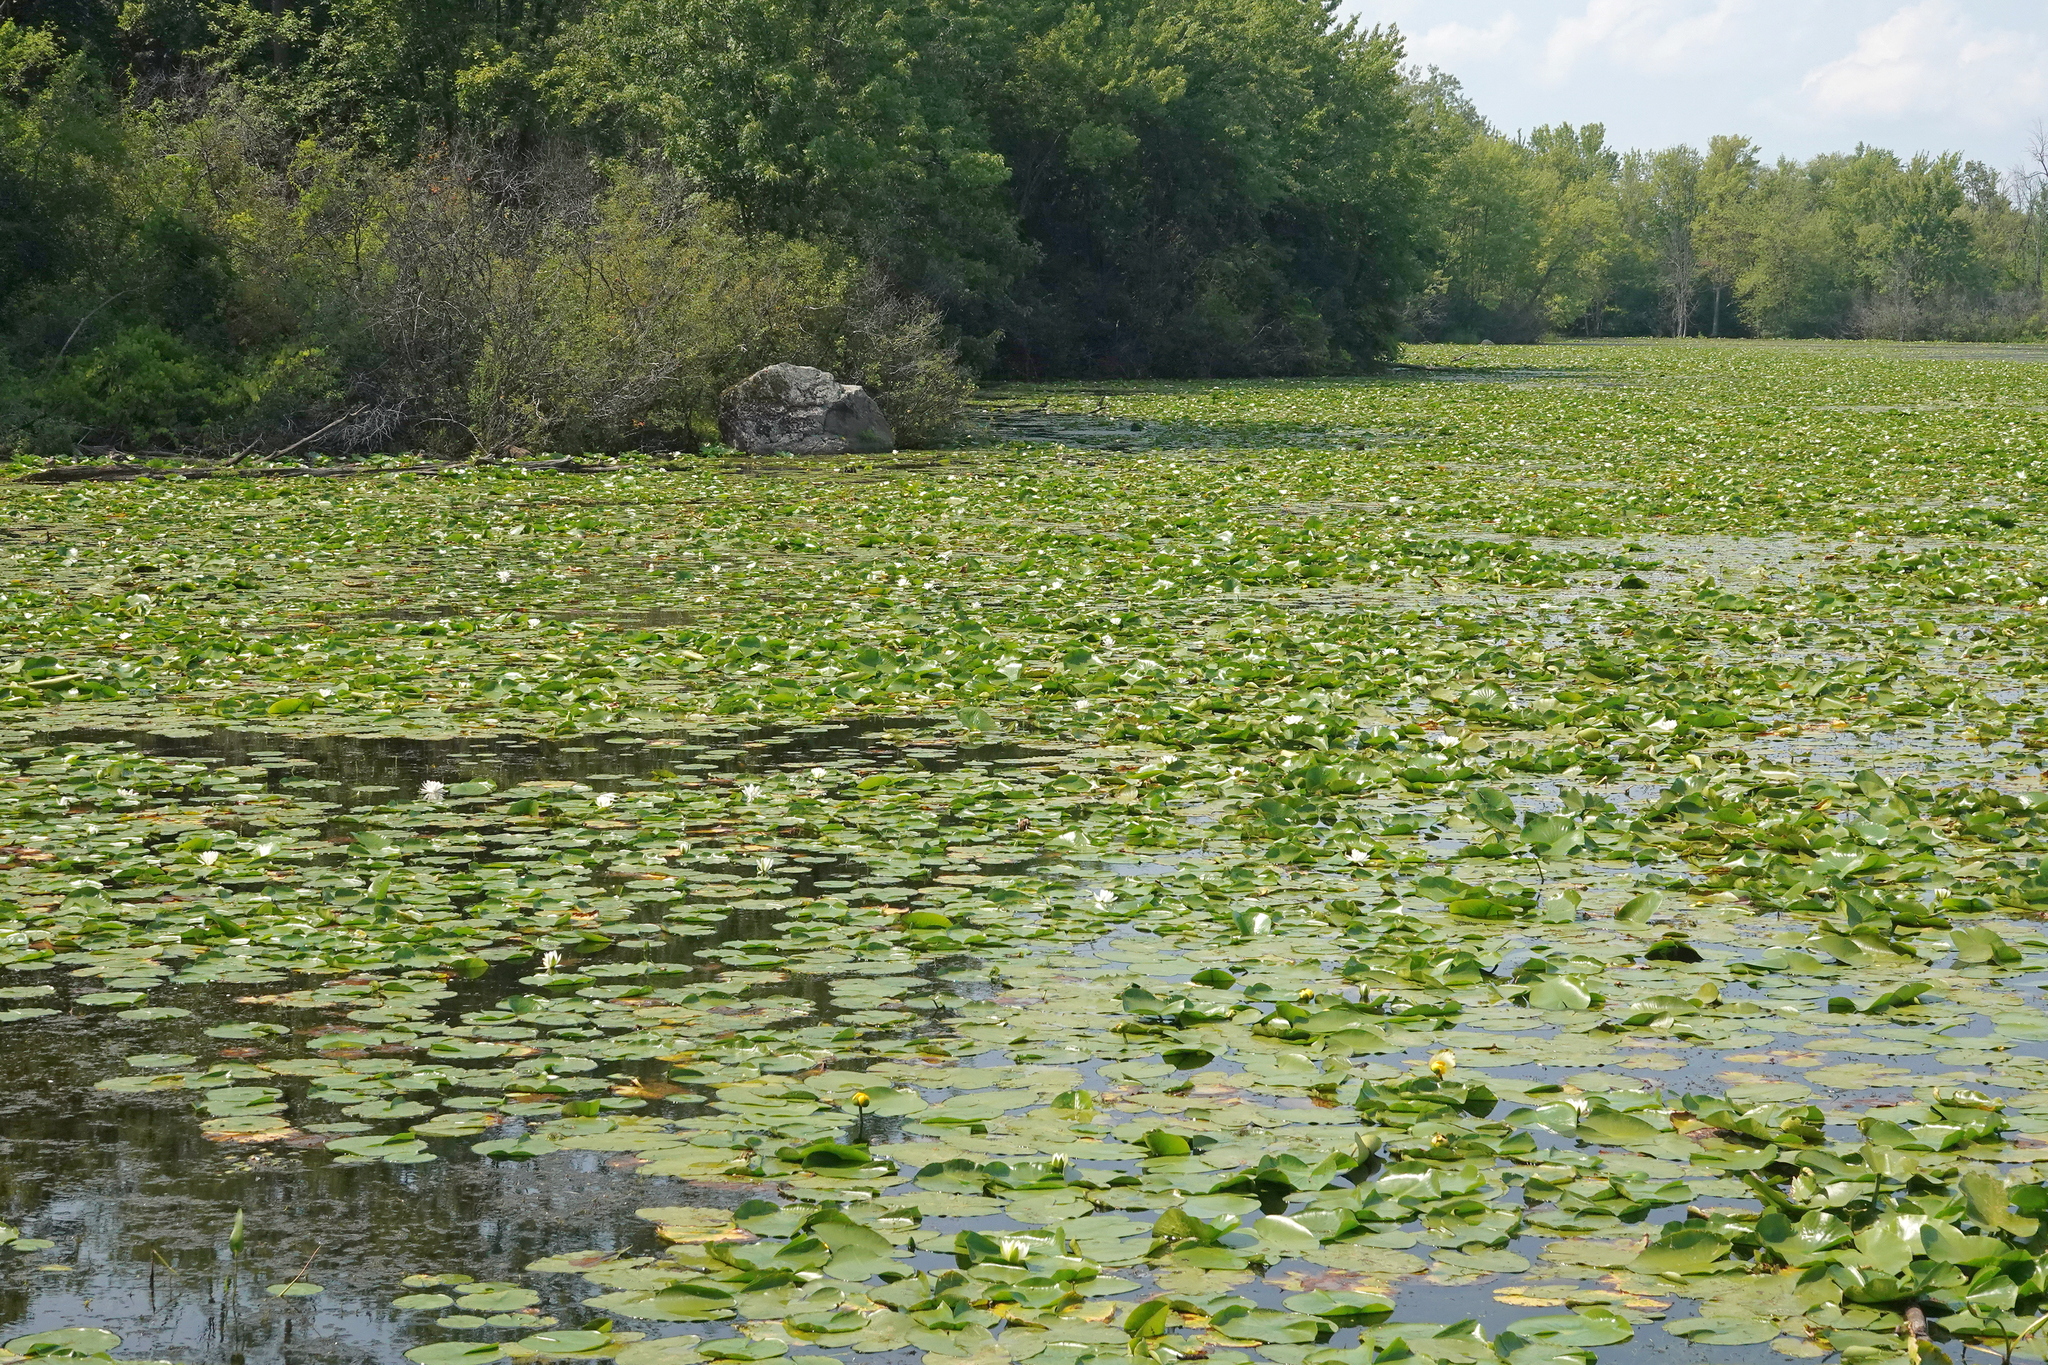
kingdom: Plantae
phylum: Tracheophyta
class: Magnoliopsida
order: Nymphaeales
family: Nymphaeaceae
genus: Nymphaea
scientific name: Nymphaea odorata
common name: Fragrant water-lily
